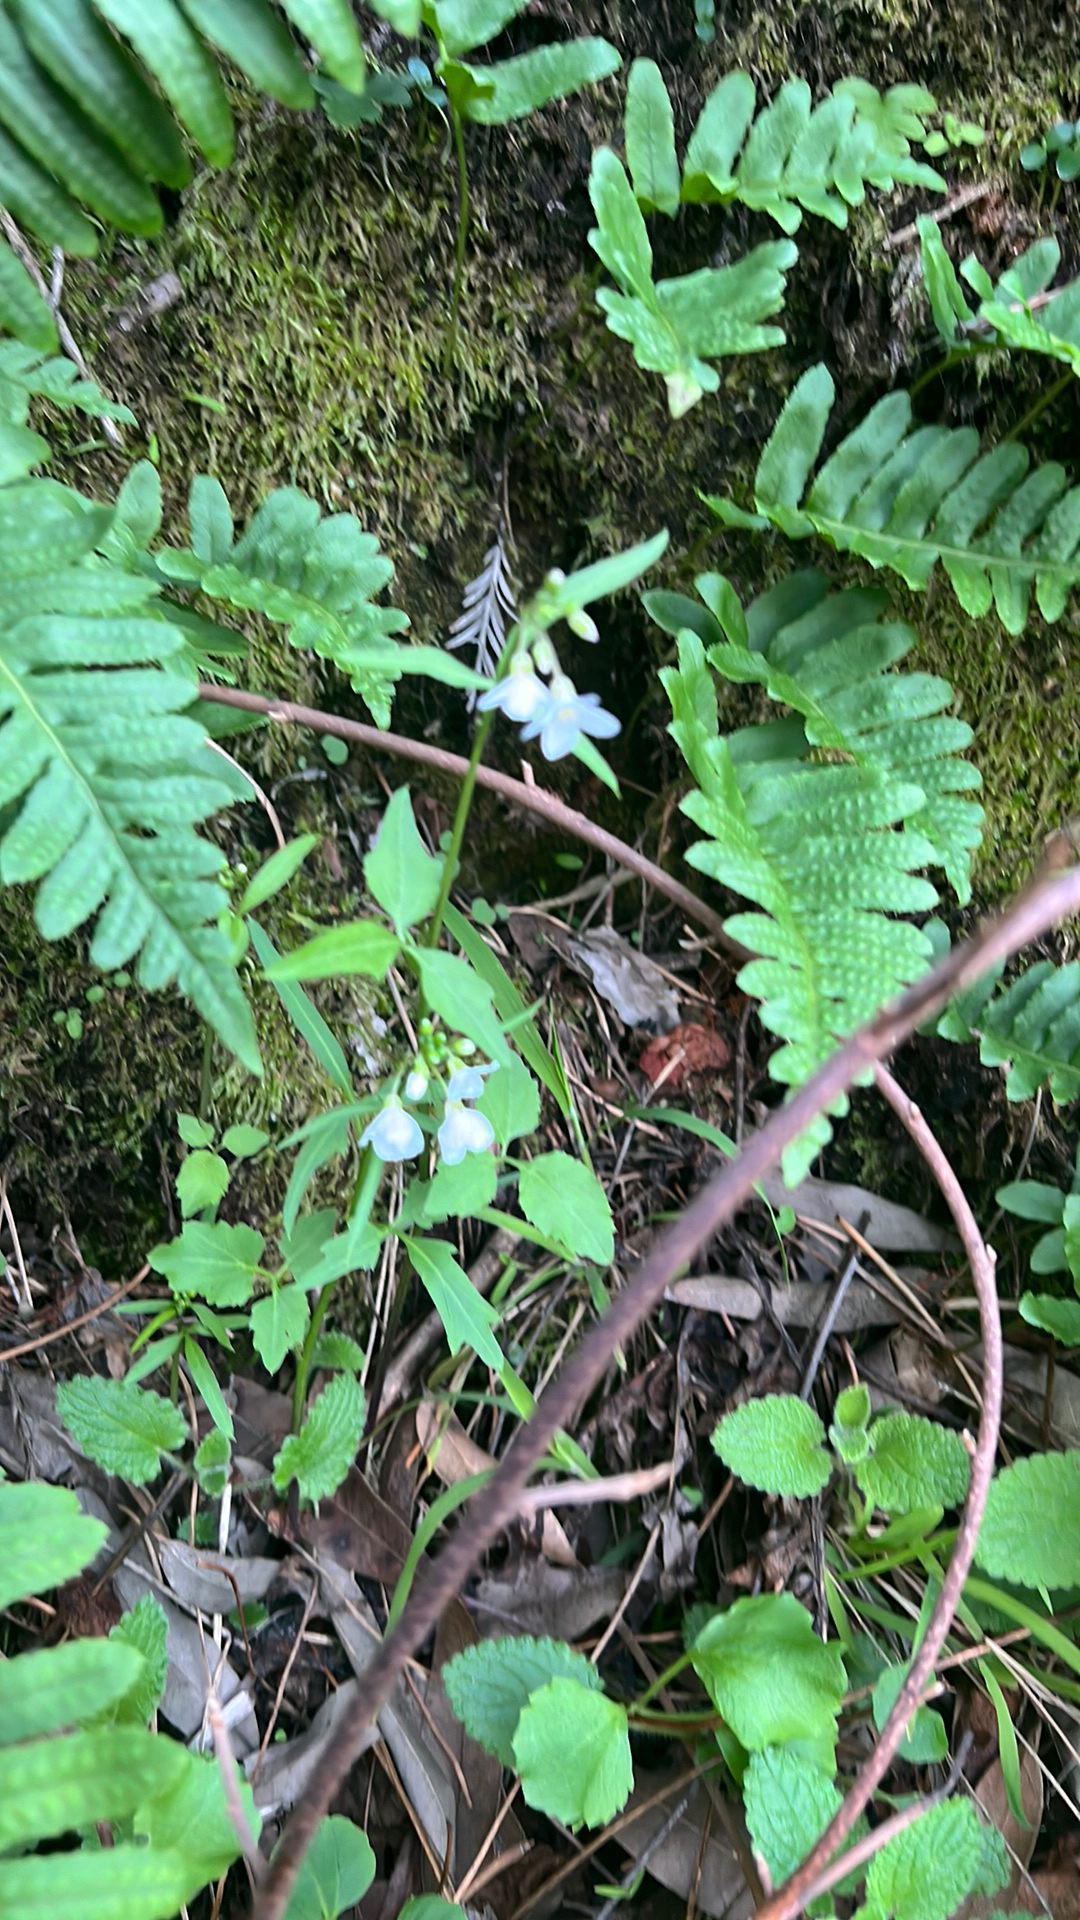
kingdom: Plantae
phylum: Tracheophyta
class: Magnoliopsida
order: Brassicales
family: Brassicaceae
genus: Cardamine
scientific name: Cardamine californica
